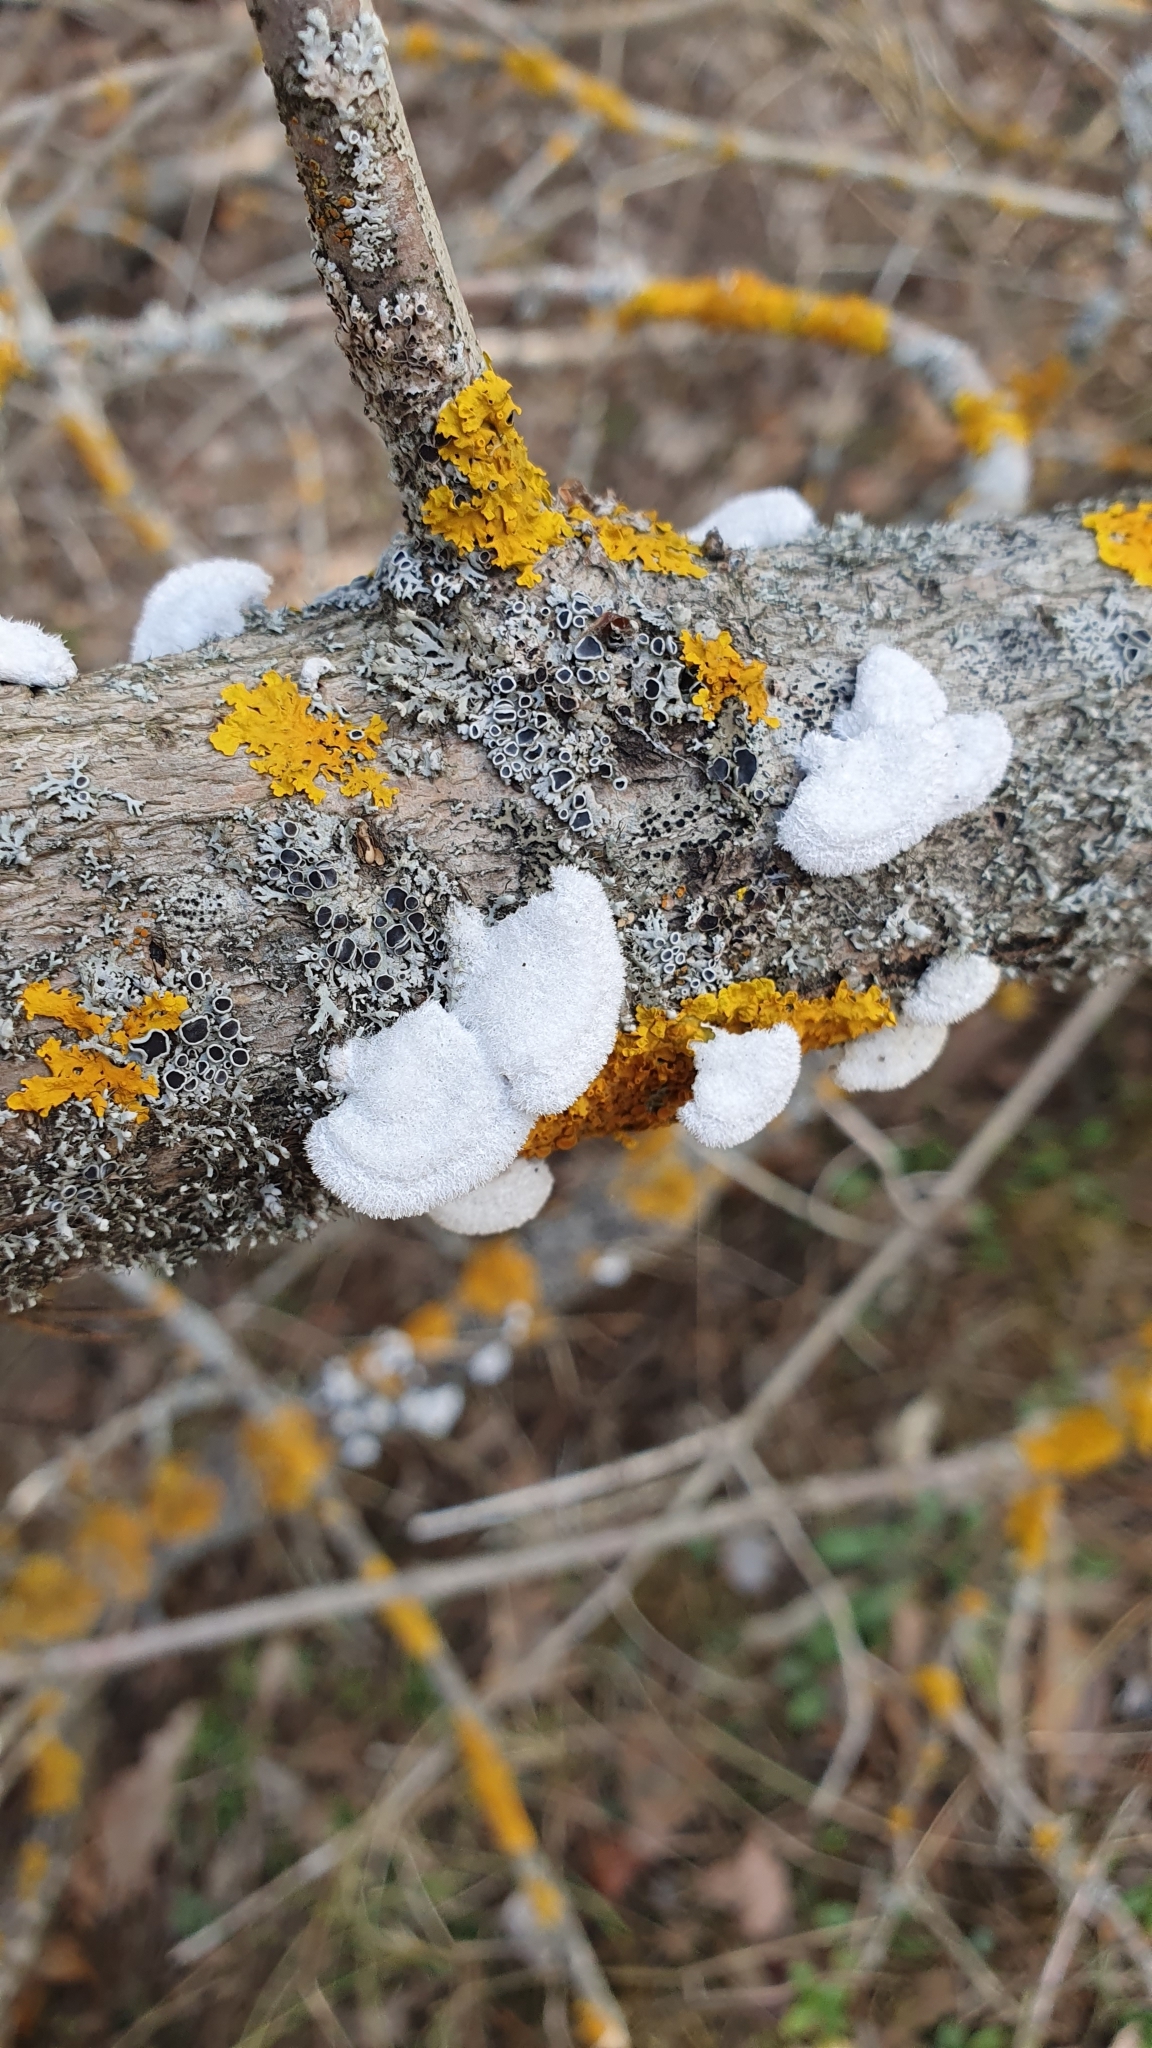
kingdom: Fungi
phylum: Basidiomycota
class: Agaricomycetes
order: Agaricales
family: Schizophyllaceae
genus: Schizophyllum
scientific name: Schizophyllum commune
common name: Common porecrust
